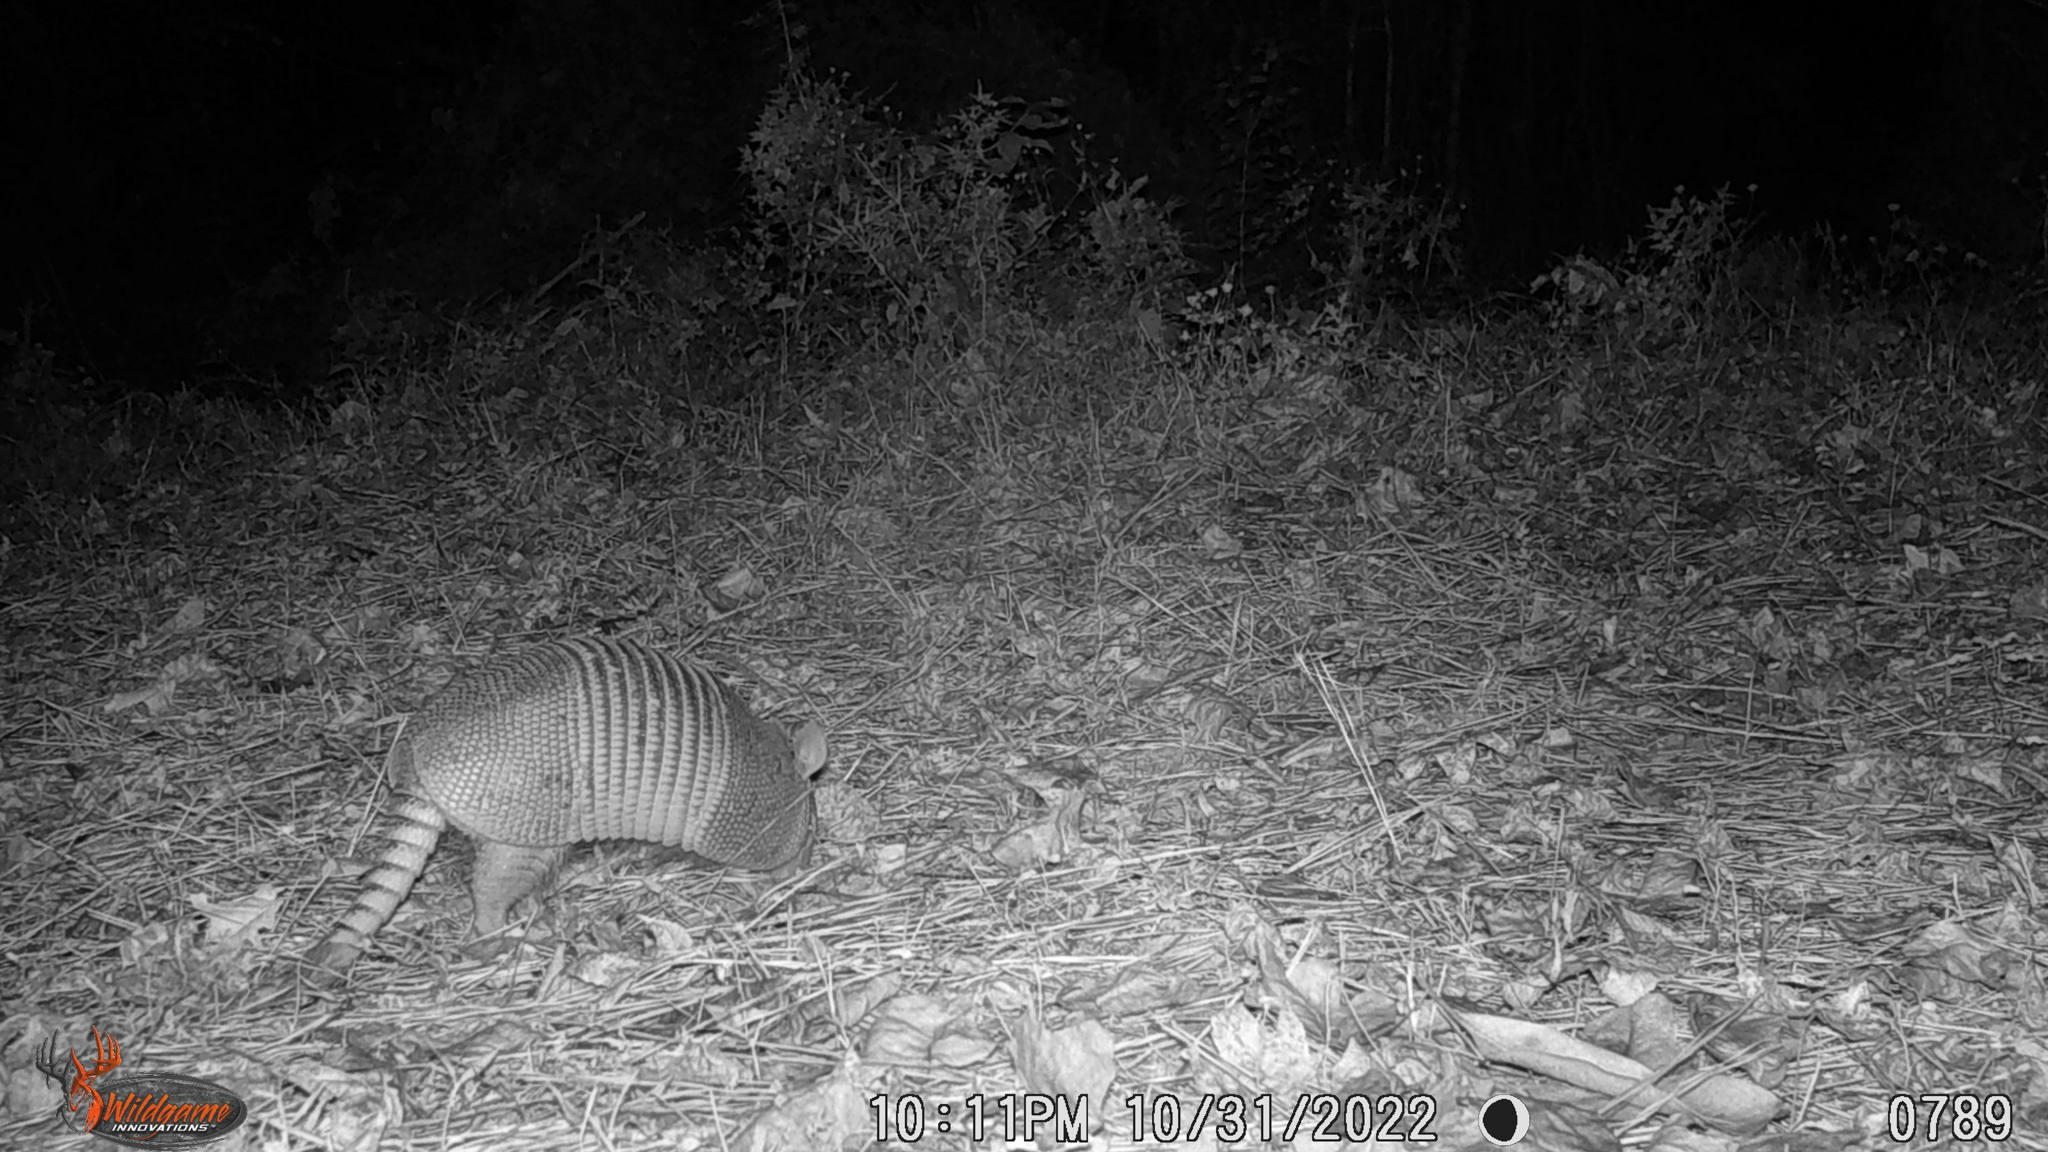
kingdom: Animalia
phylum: Chordata
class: Mammalia
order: Cingulata
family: Dasypodidae
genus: Dasypus
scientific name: Dasypus novemcinctus
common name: Nine-banded armadillo
